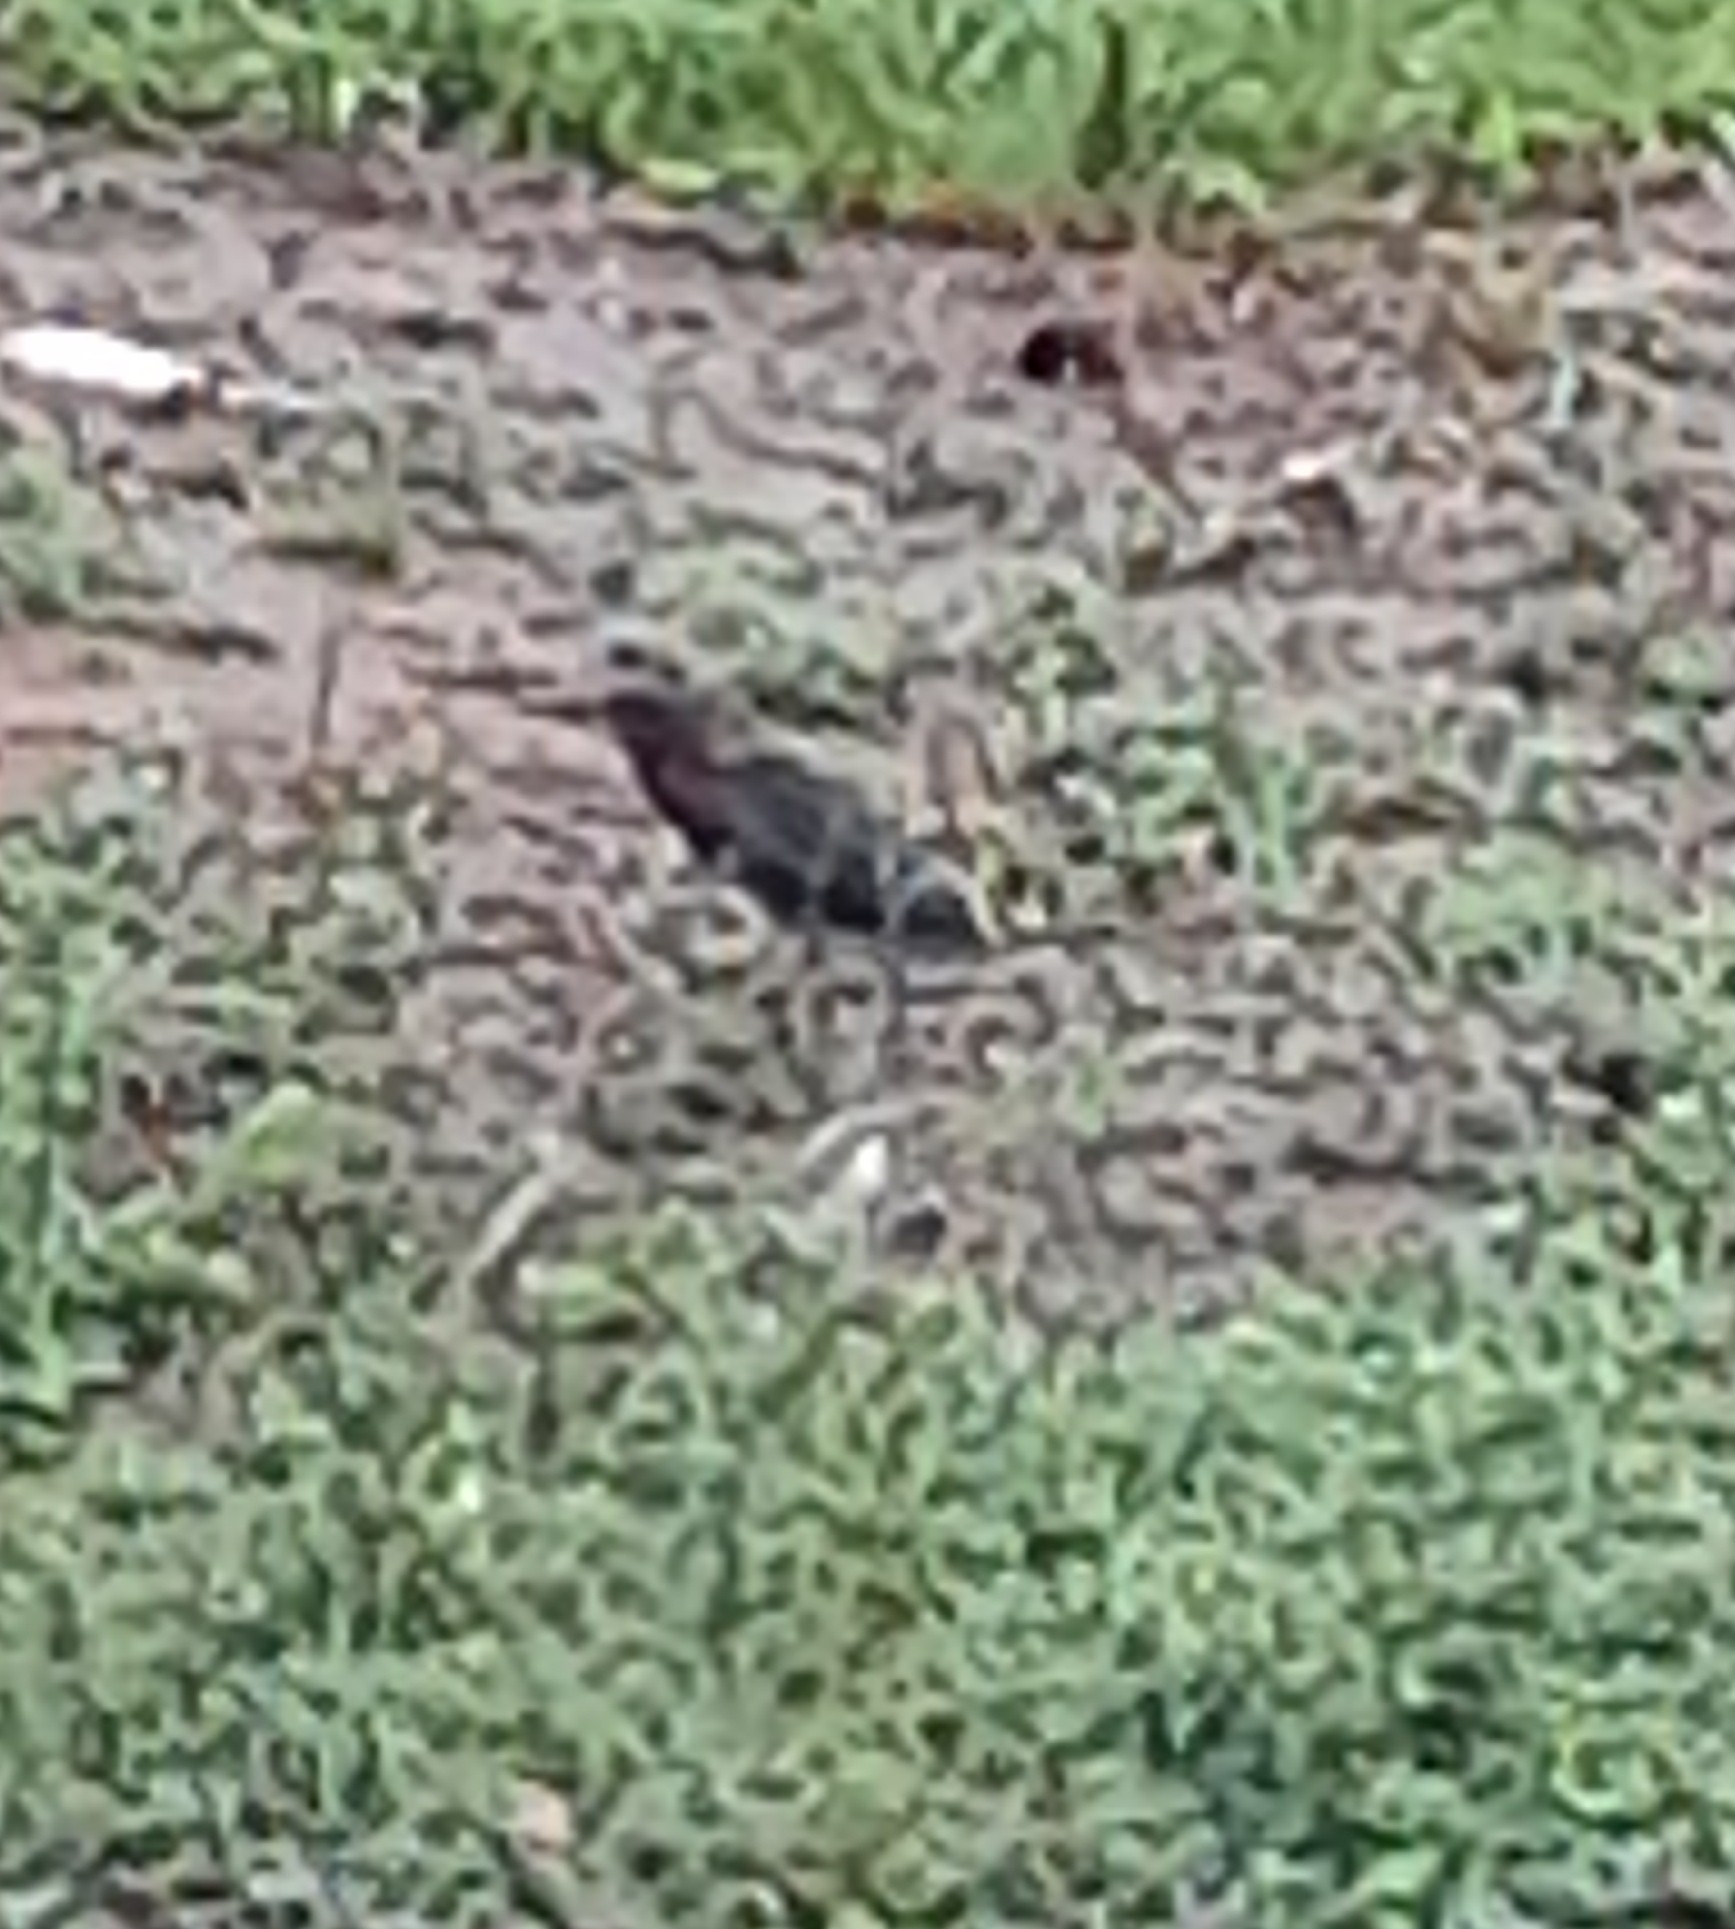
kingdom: Animalia
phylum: Chordata
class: Aves
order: Pelecaniformes
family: Ardeidae
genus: Butorides
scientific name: Butorides virescens
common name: Green heron
